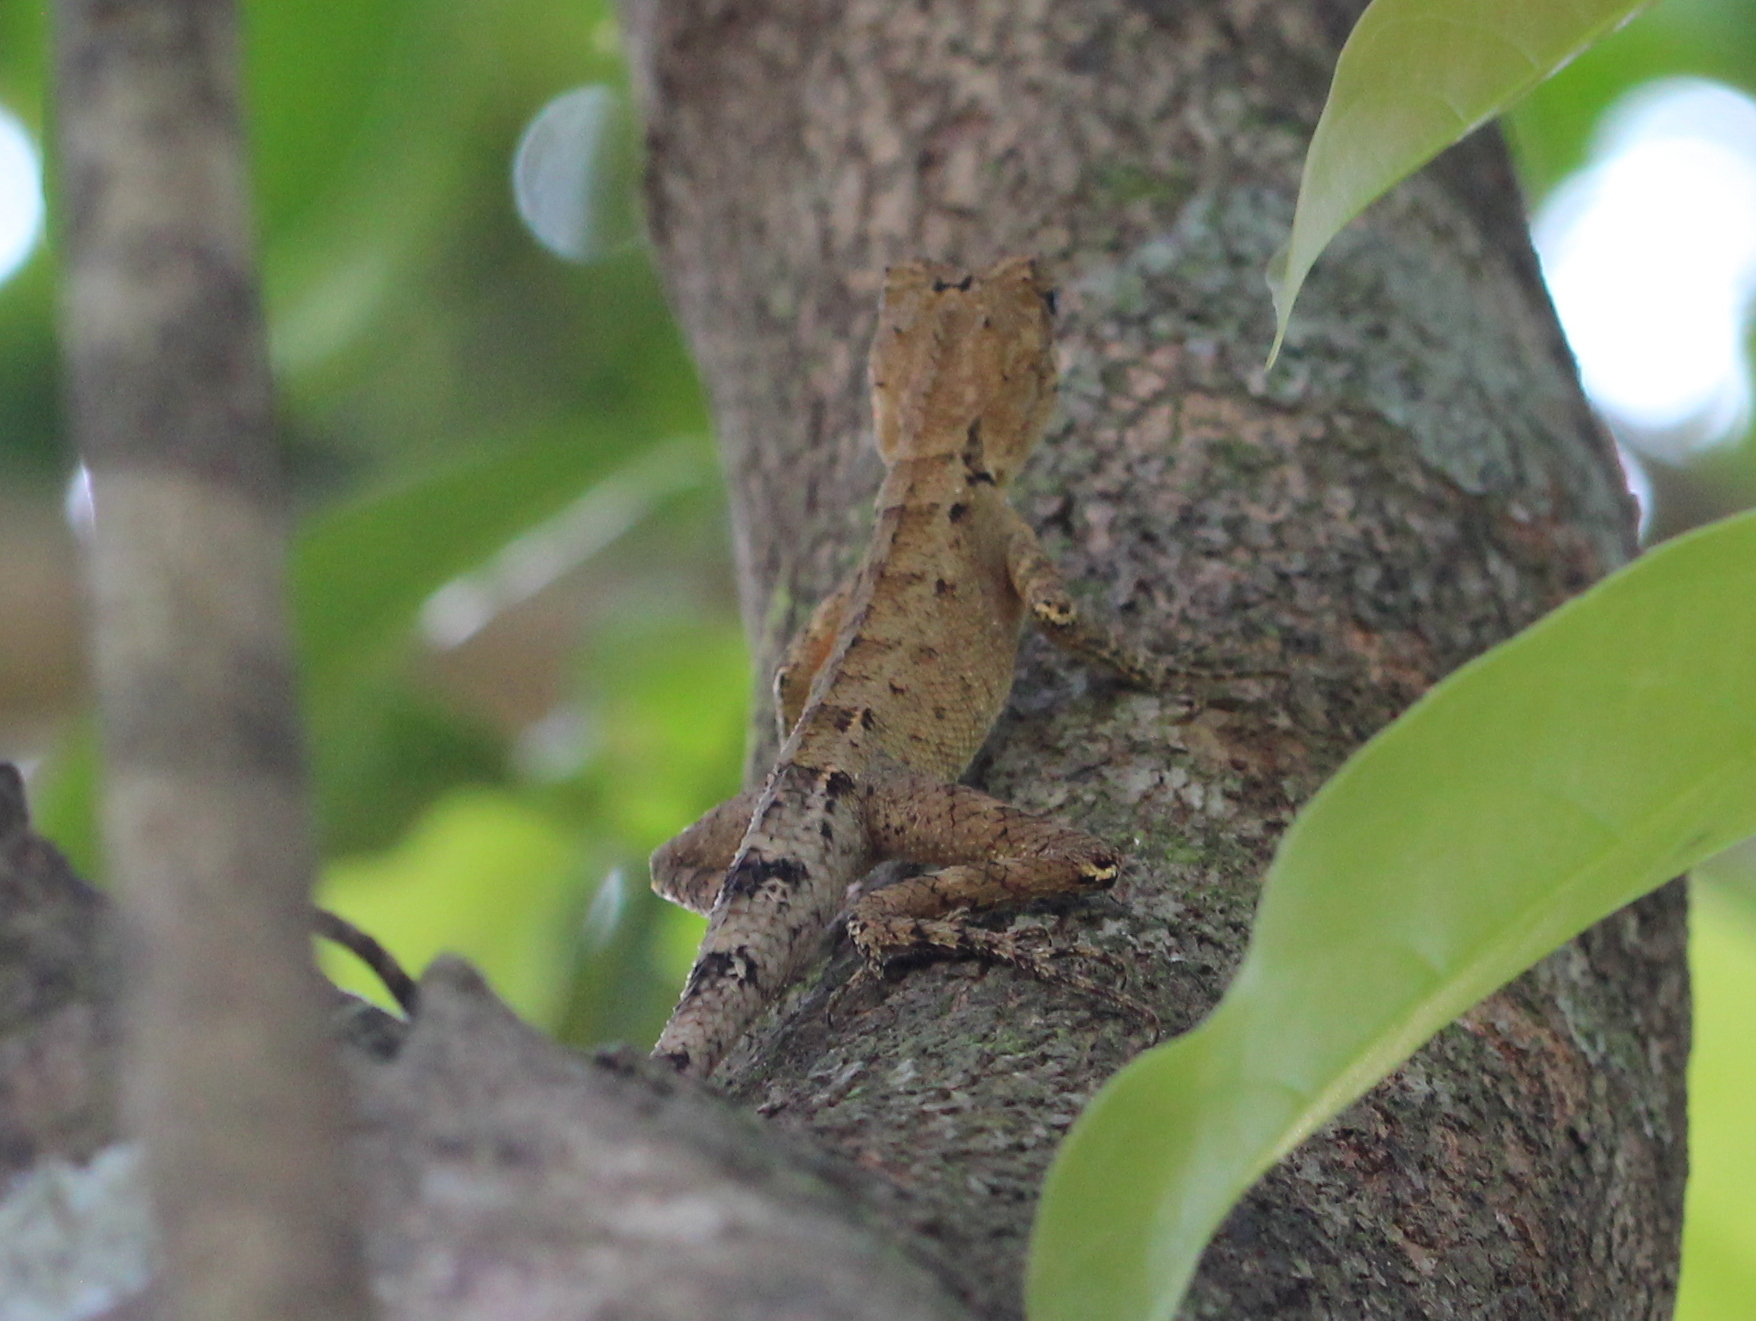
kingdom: Animalia
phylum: Chordata
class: Squamata
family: Agamidae
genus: Monilesaurus
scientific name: Monilesaurus rouxii
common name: Roux's forest lizard
